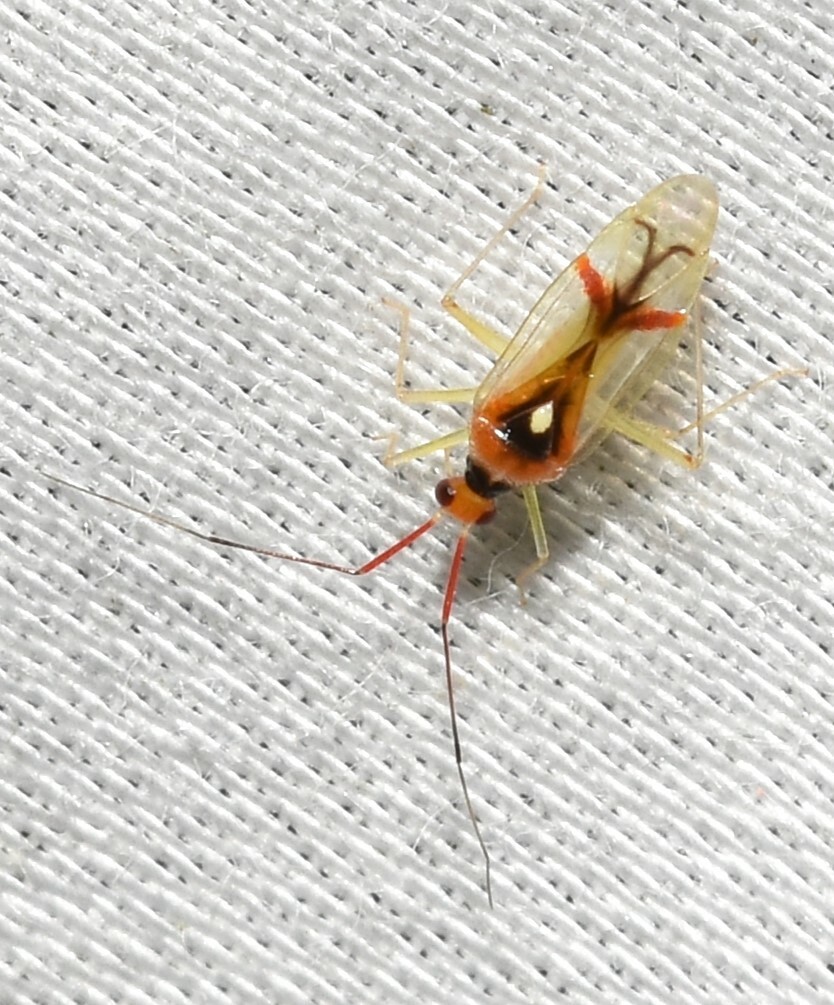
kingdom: Animalia
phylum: Arthropoda
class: Insecta
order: Hemiptera
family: Miridae
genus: Hyaliodes
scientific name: Hyaliodes harti
